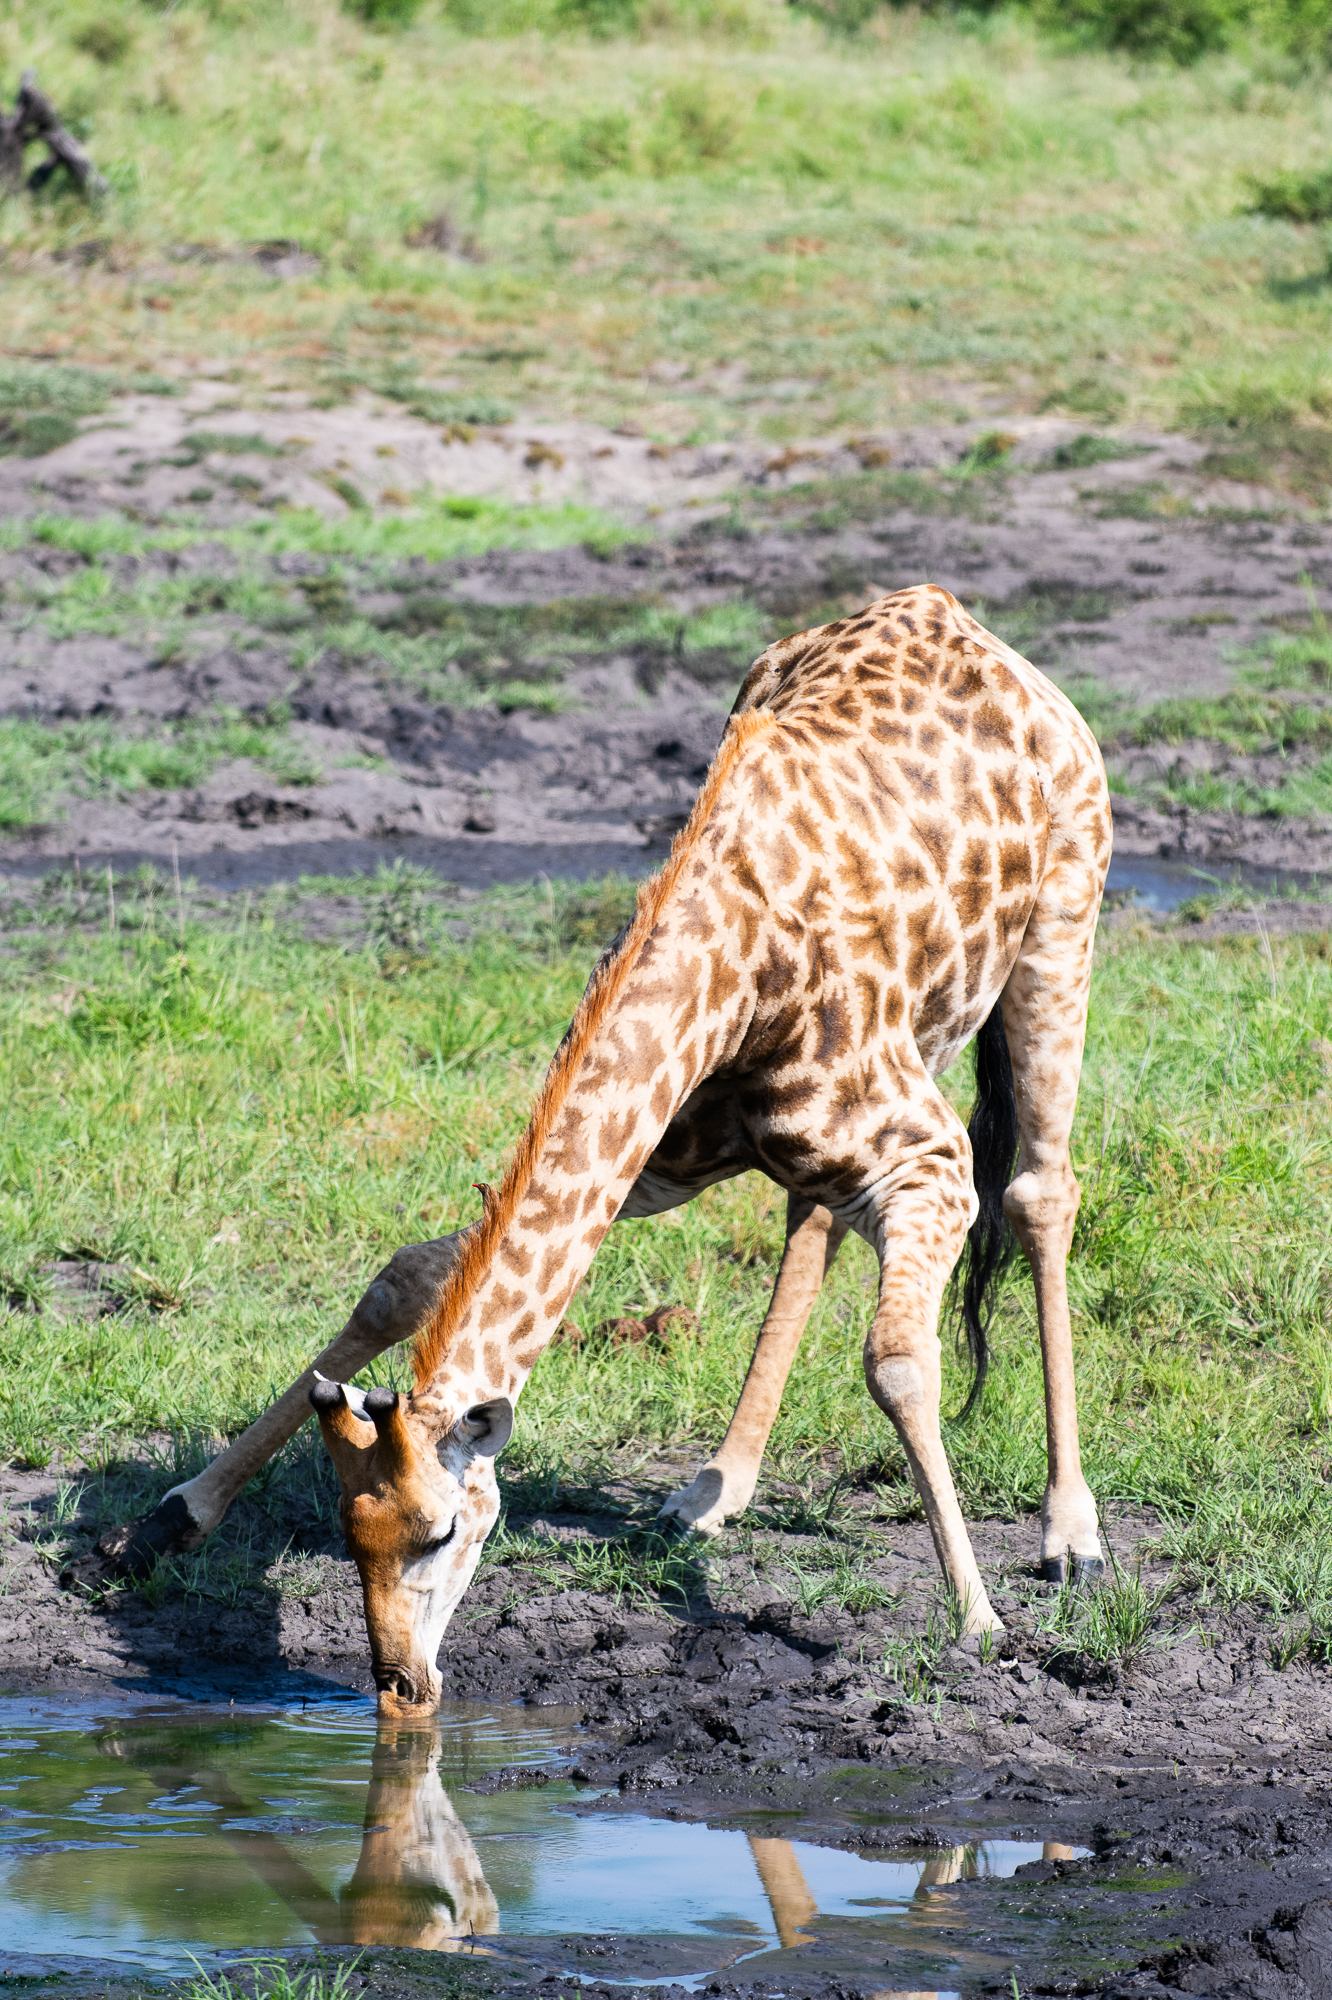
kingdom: Animalia
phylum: Chordata
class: Mammalia
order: Artiodactyla
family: Giraffidae
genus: Giraffa
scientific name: Giraffa giraffa
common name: Southern giraffe
